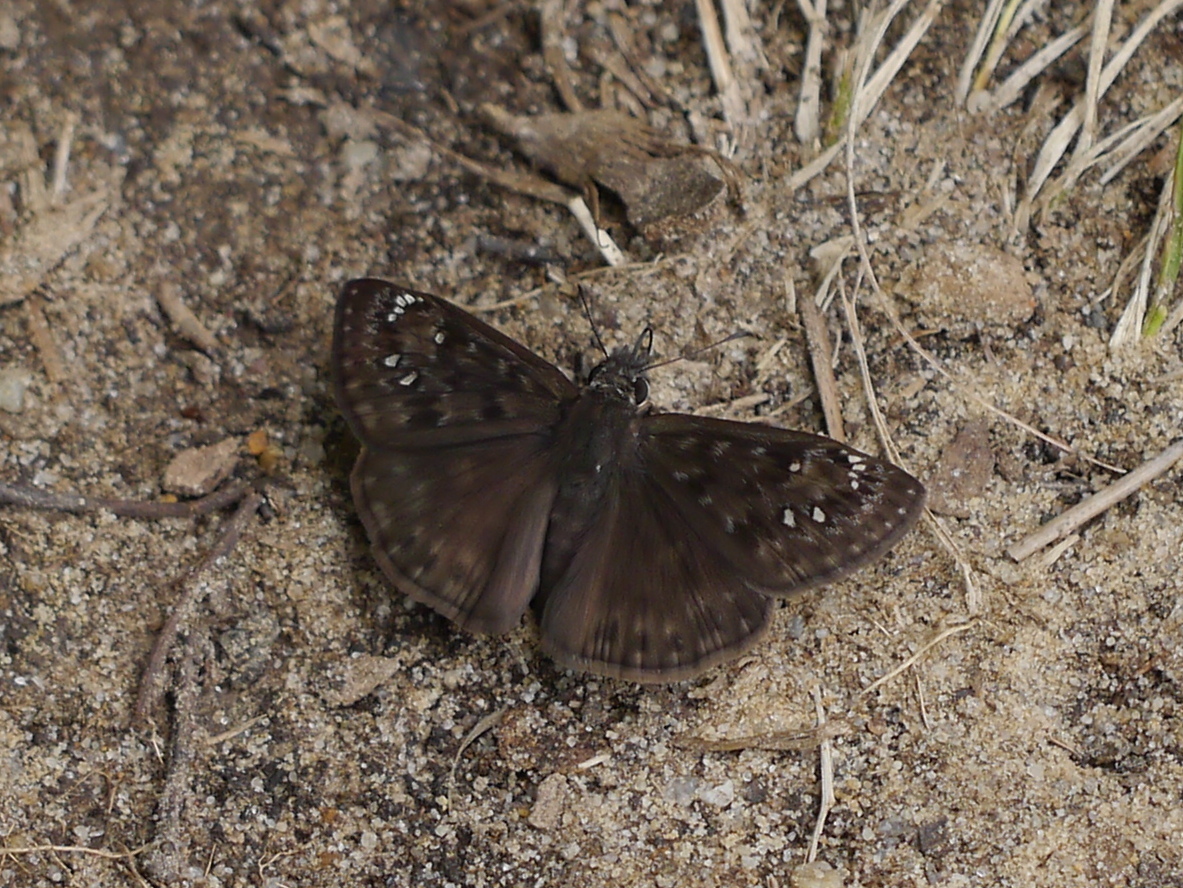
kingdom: Animalia
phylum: Arthropoda
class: Insecta
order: Lepidoptera
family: Hesperiidae
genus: Erynnis
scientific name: Erynnis horatius
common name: Horace's duskywing
